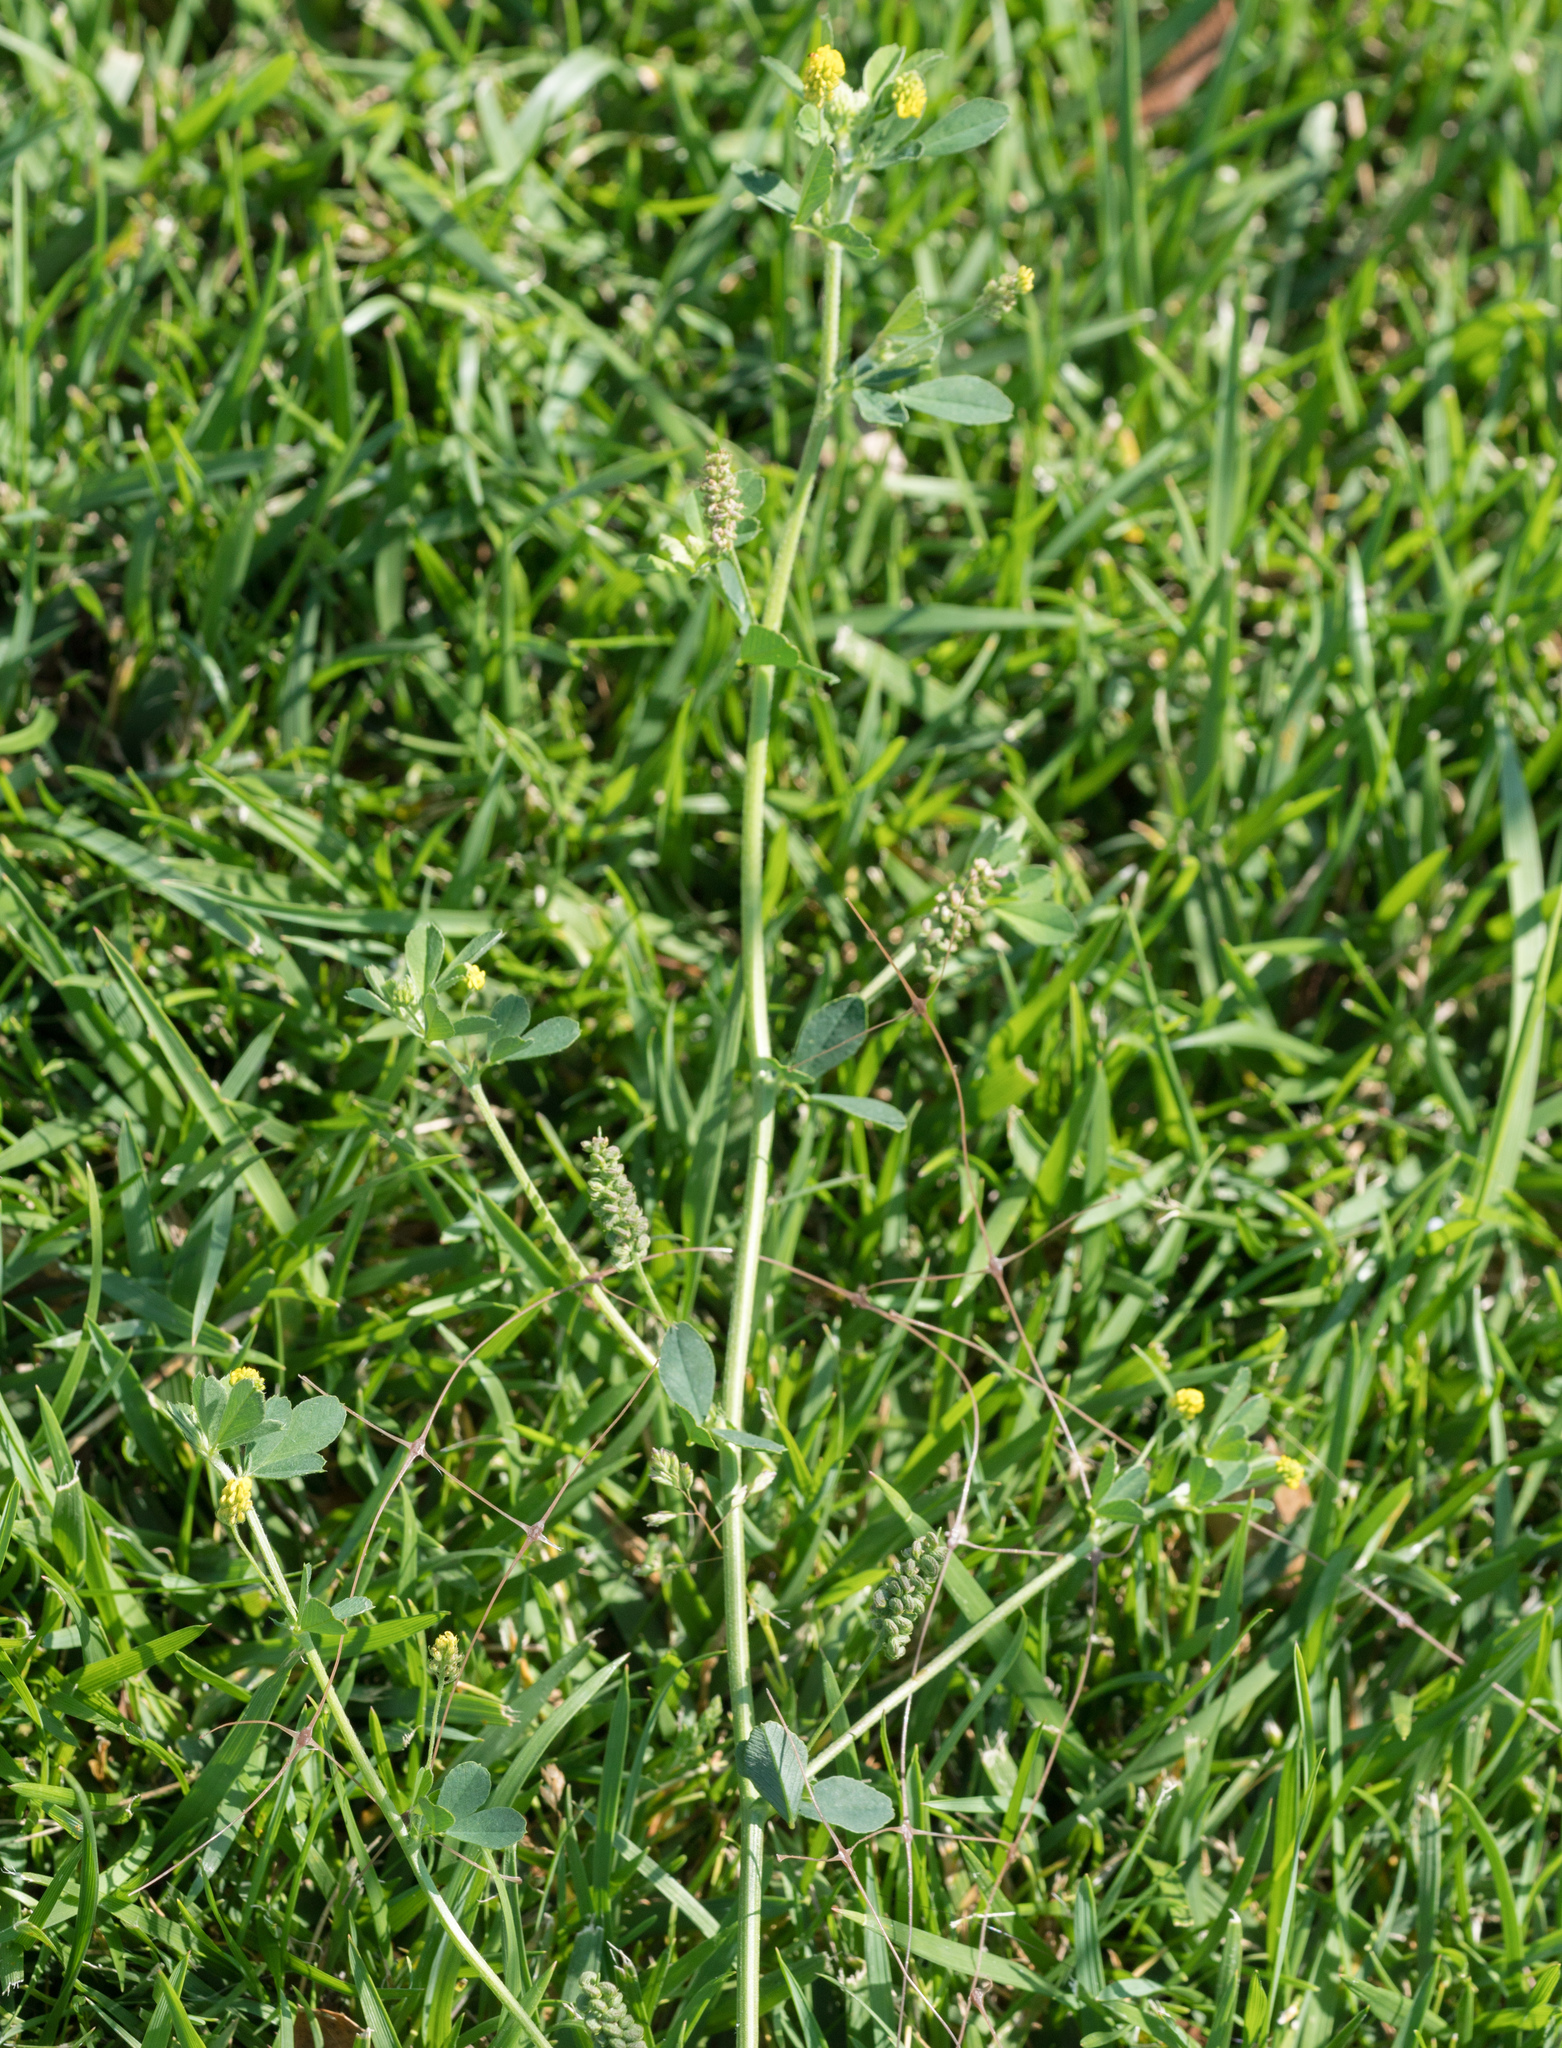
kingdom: Plantae
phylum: Tracheophyta
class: Magnoliopsida
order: Fabales
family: Fabaceae
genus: Medicago
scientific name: Medicago lupulina
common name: Black medick
